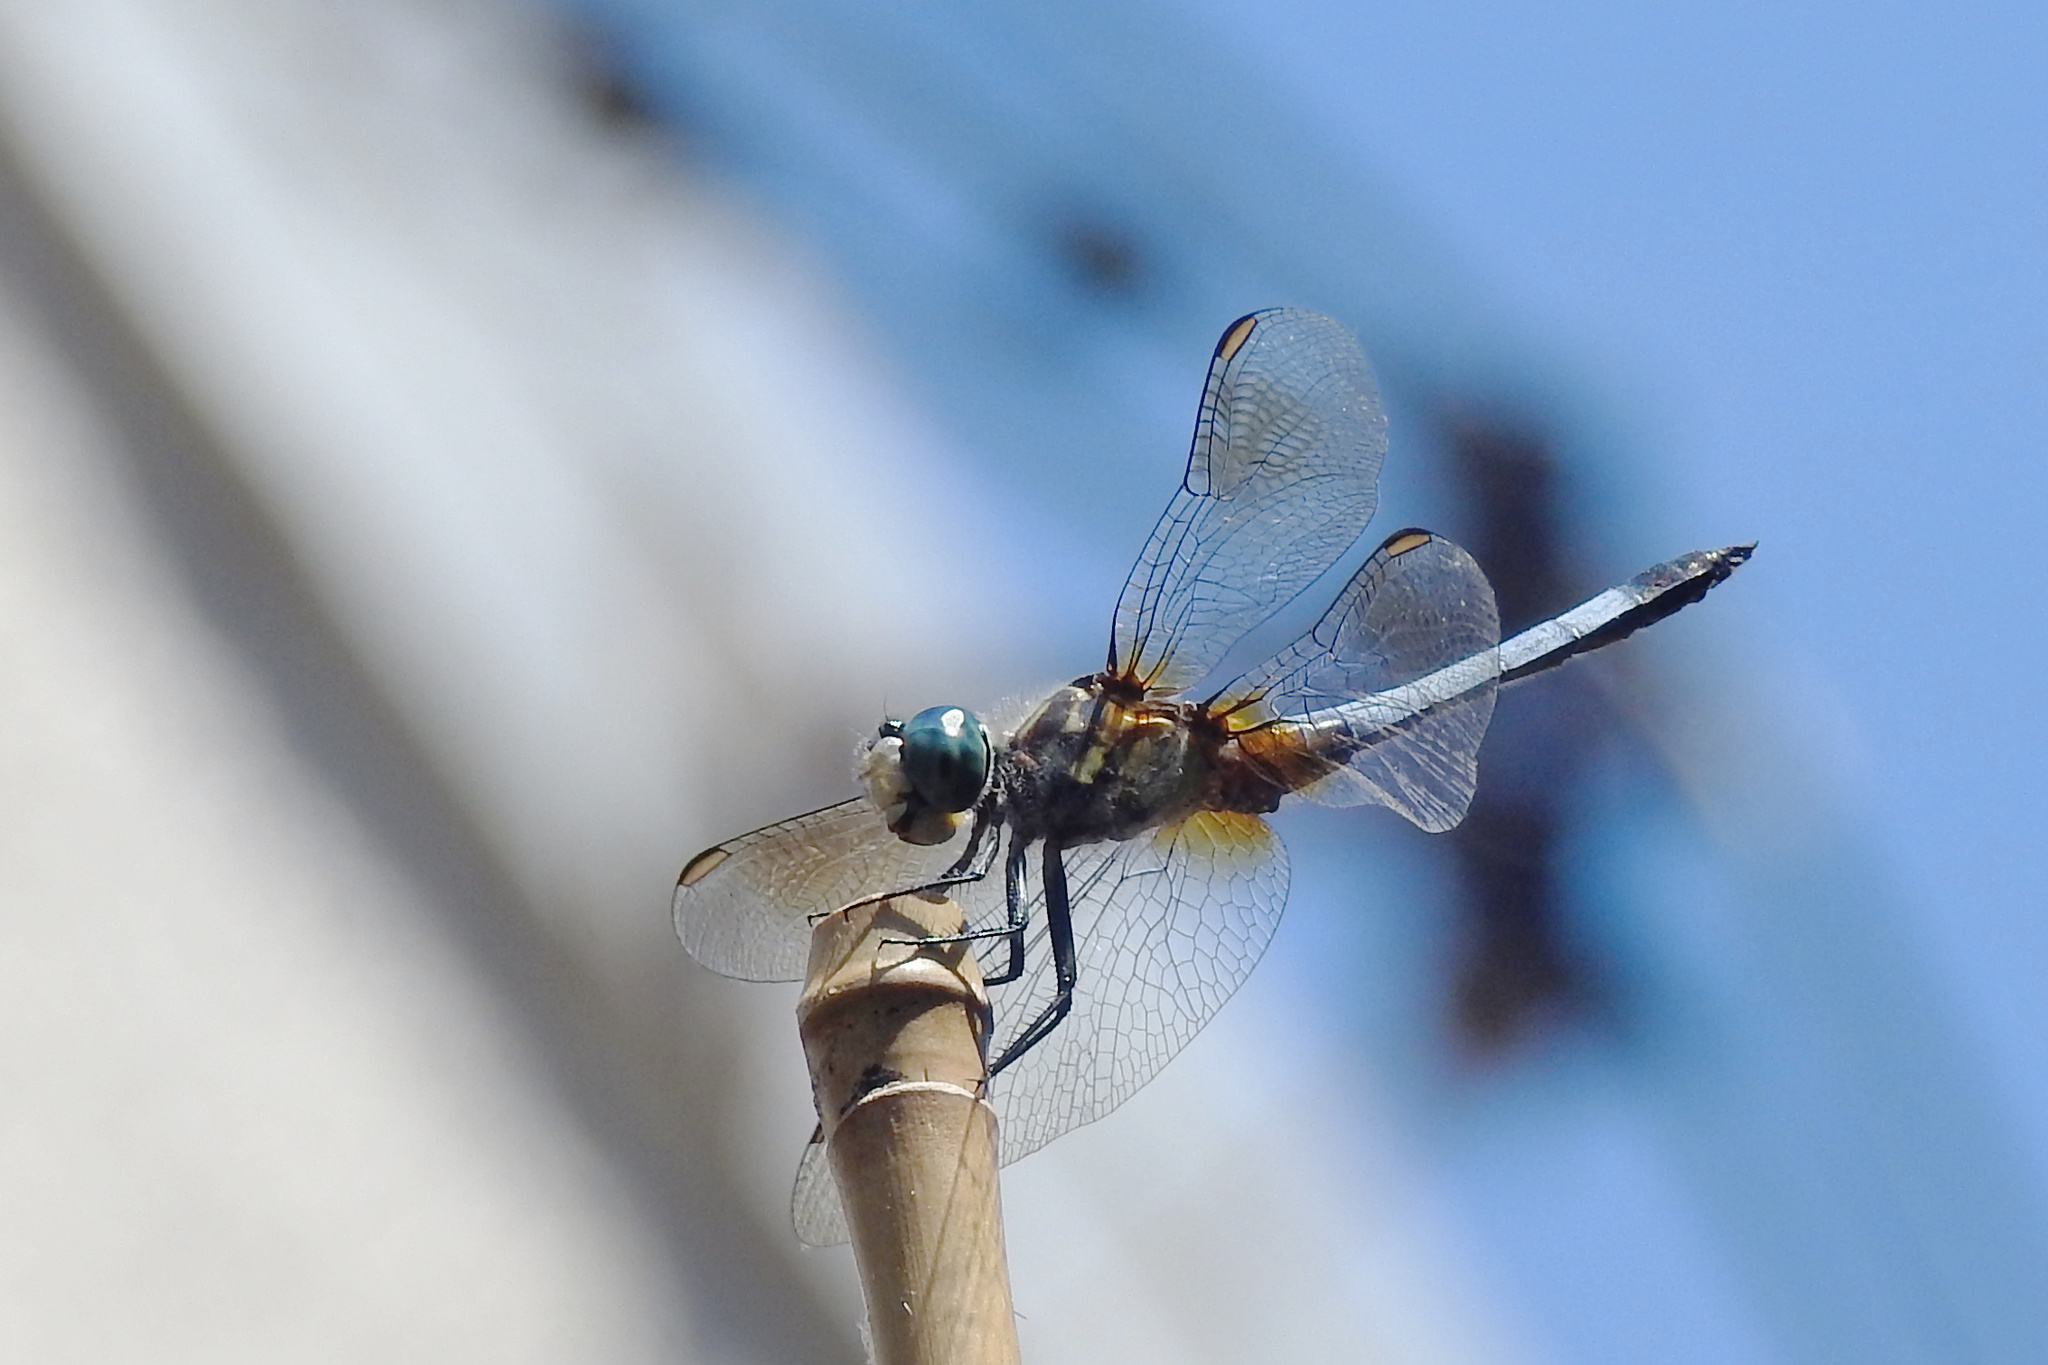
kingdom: Animalia
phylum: Arthropoda
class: Insecta
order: Odonata
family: Libellulidae
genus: Pachydiplax
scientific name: Pachydiplax longipennis
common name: Blue dasher
